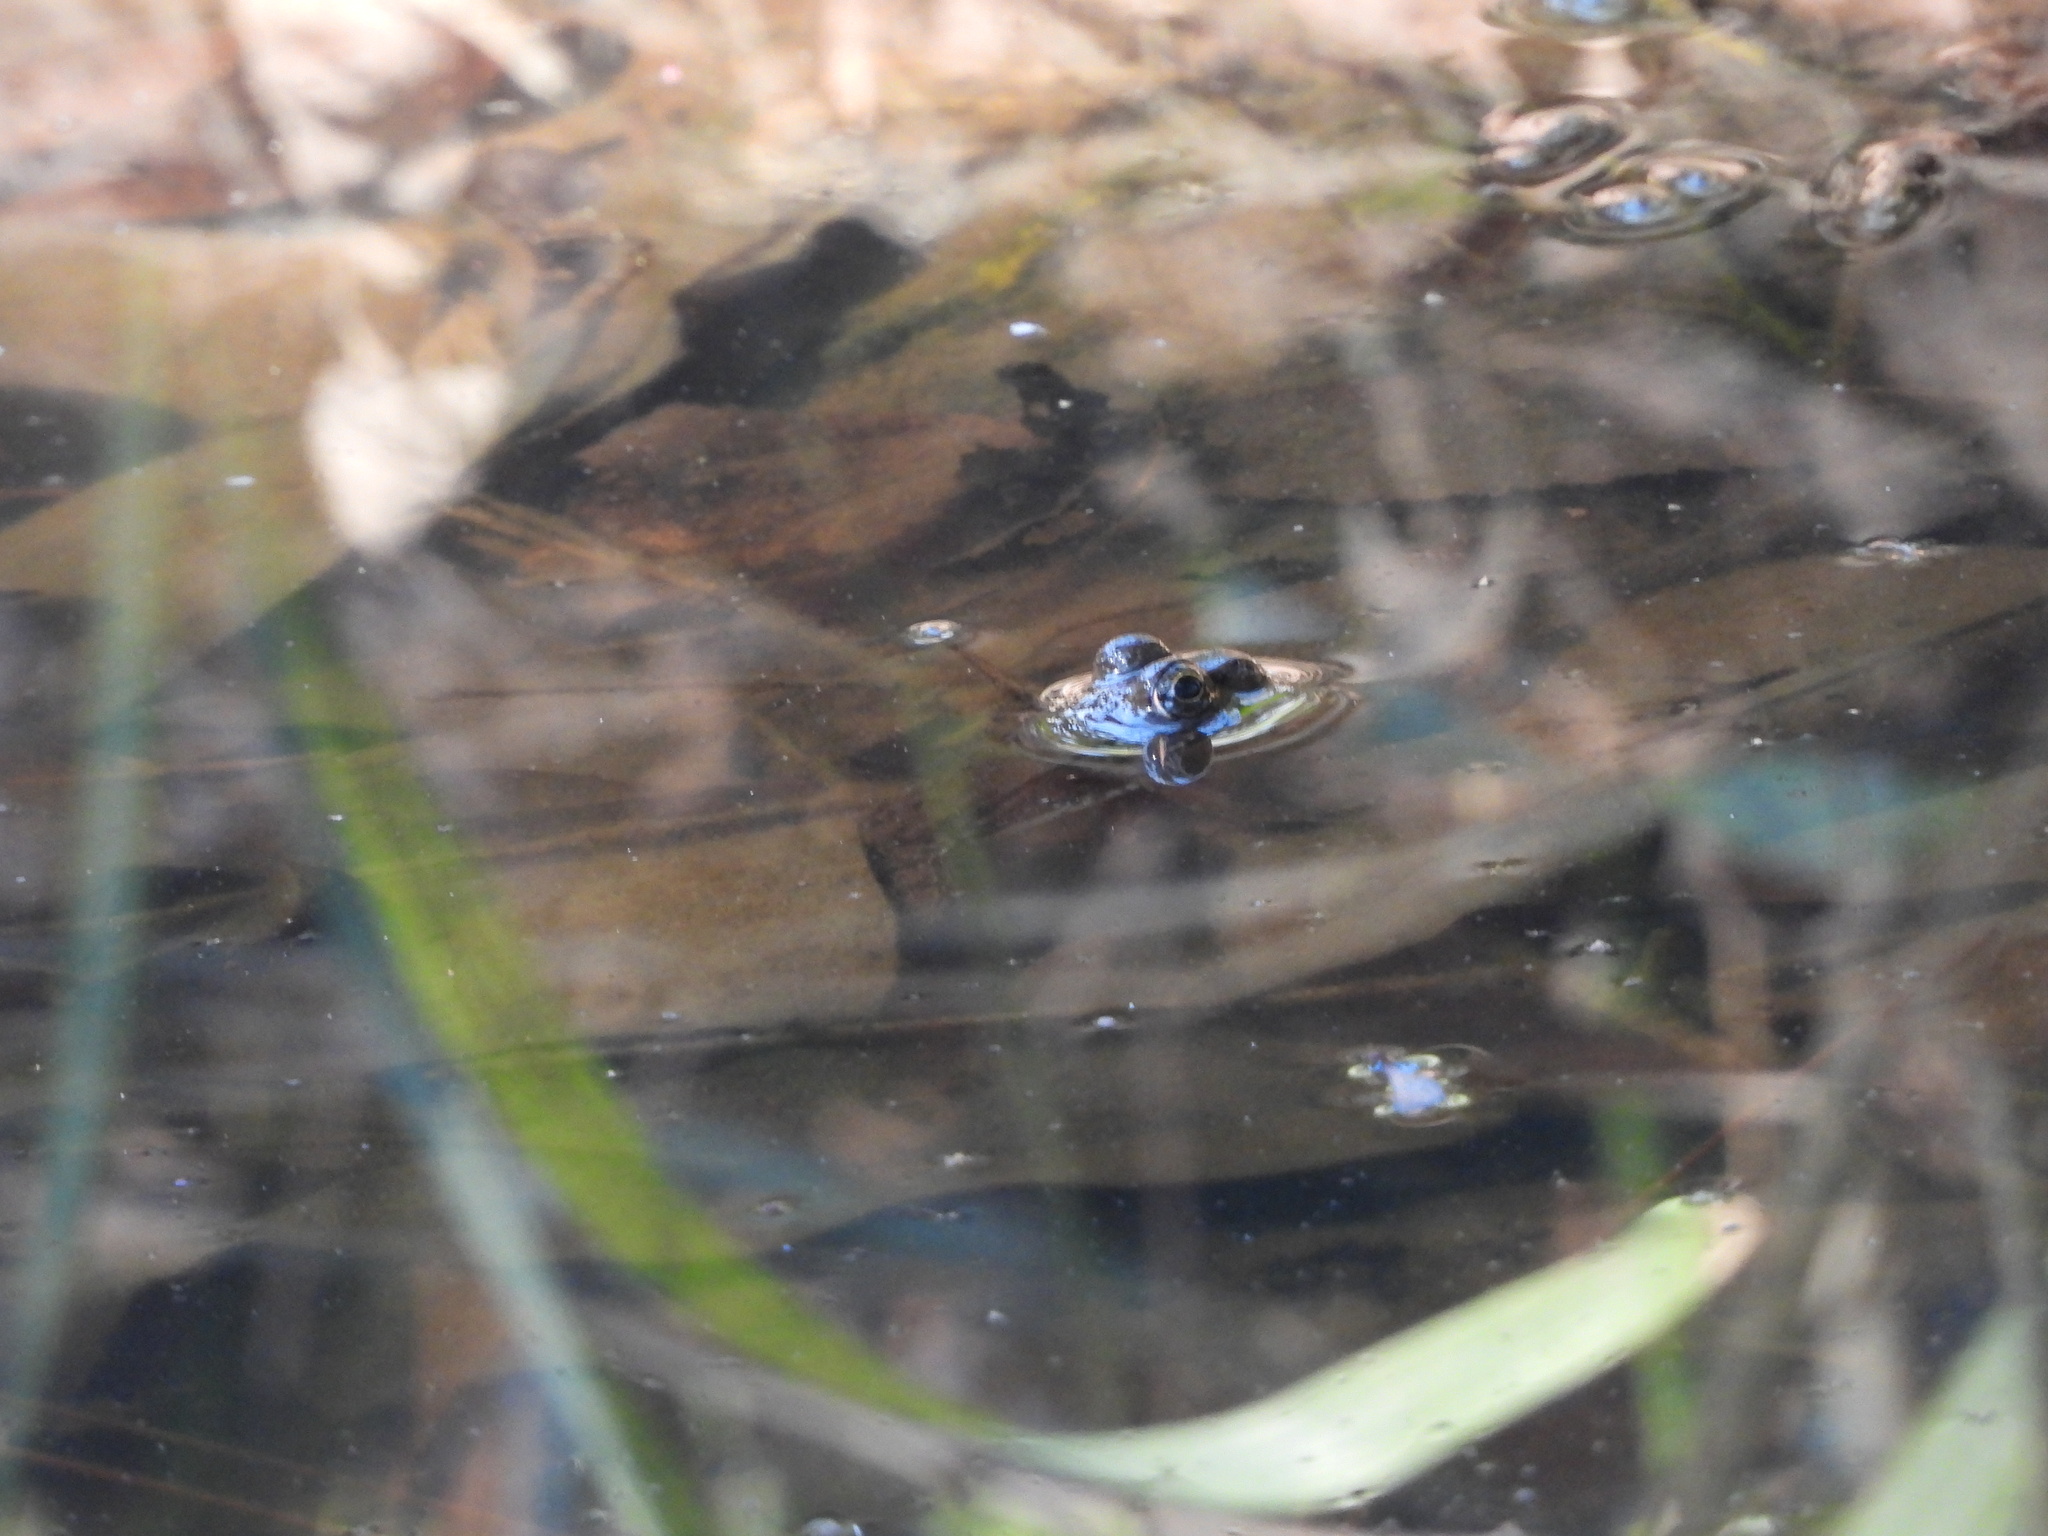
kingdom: Animalia
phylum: Chordata
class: Amphibia
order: Anura
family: Ranidae
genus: Lithobates
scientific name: Lithobates clamitans
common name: Green frog
